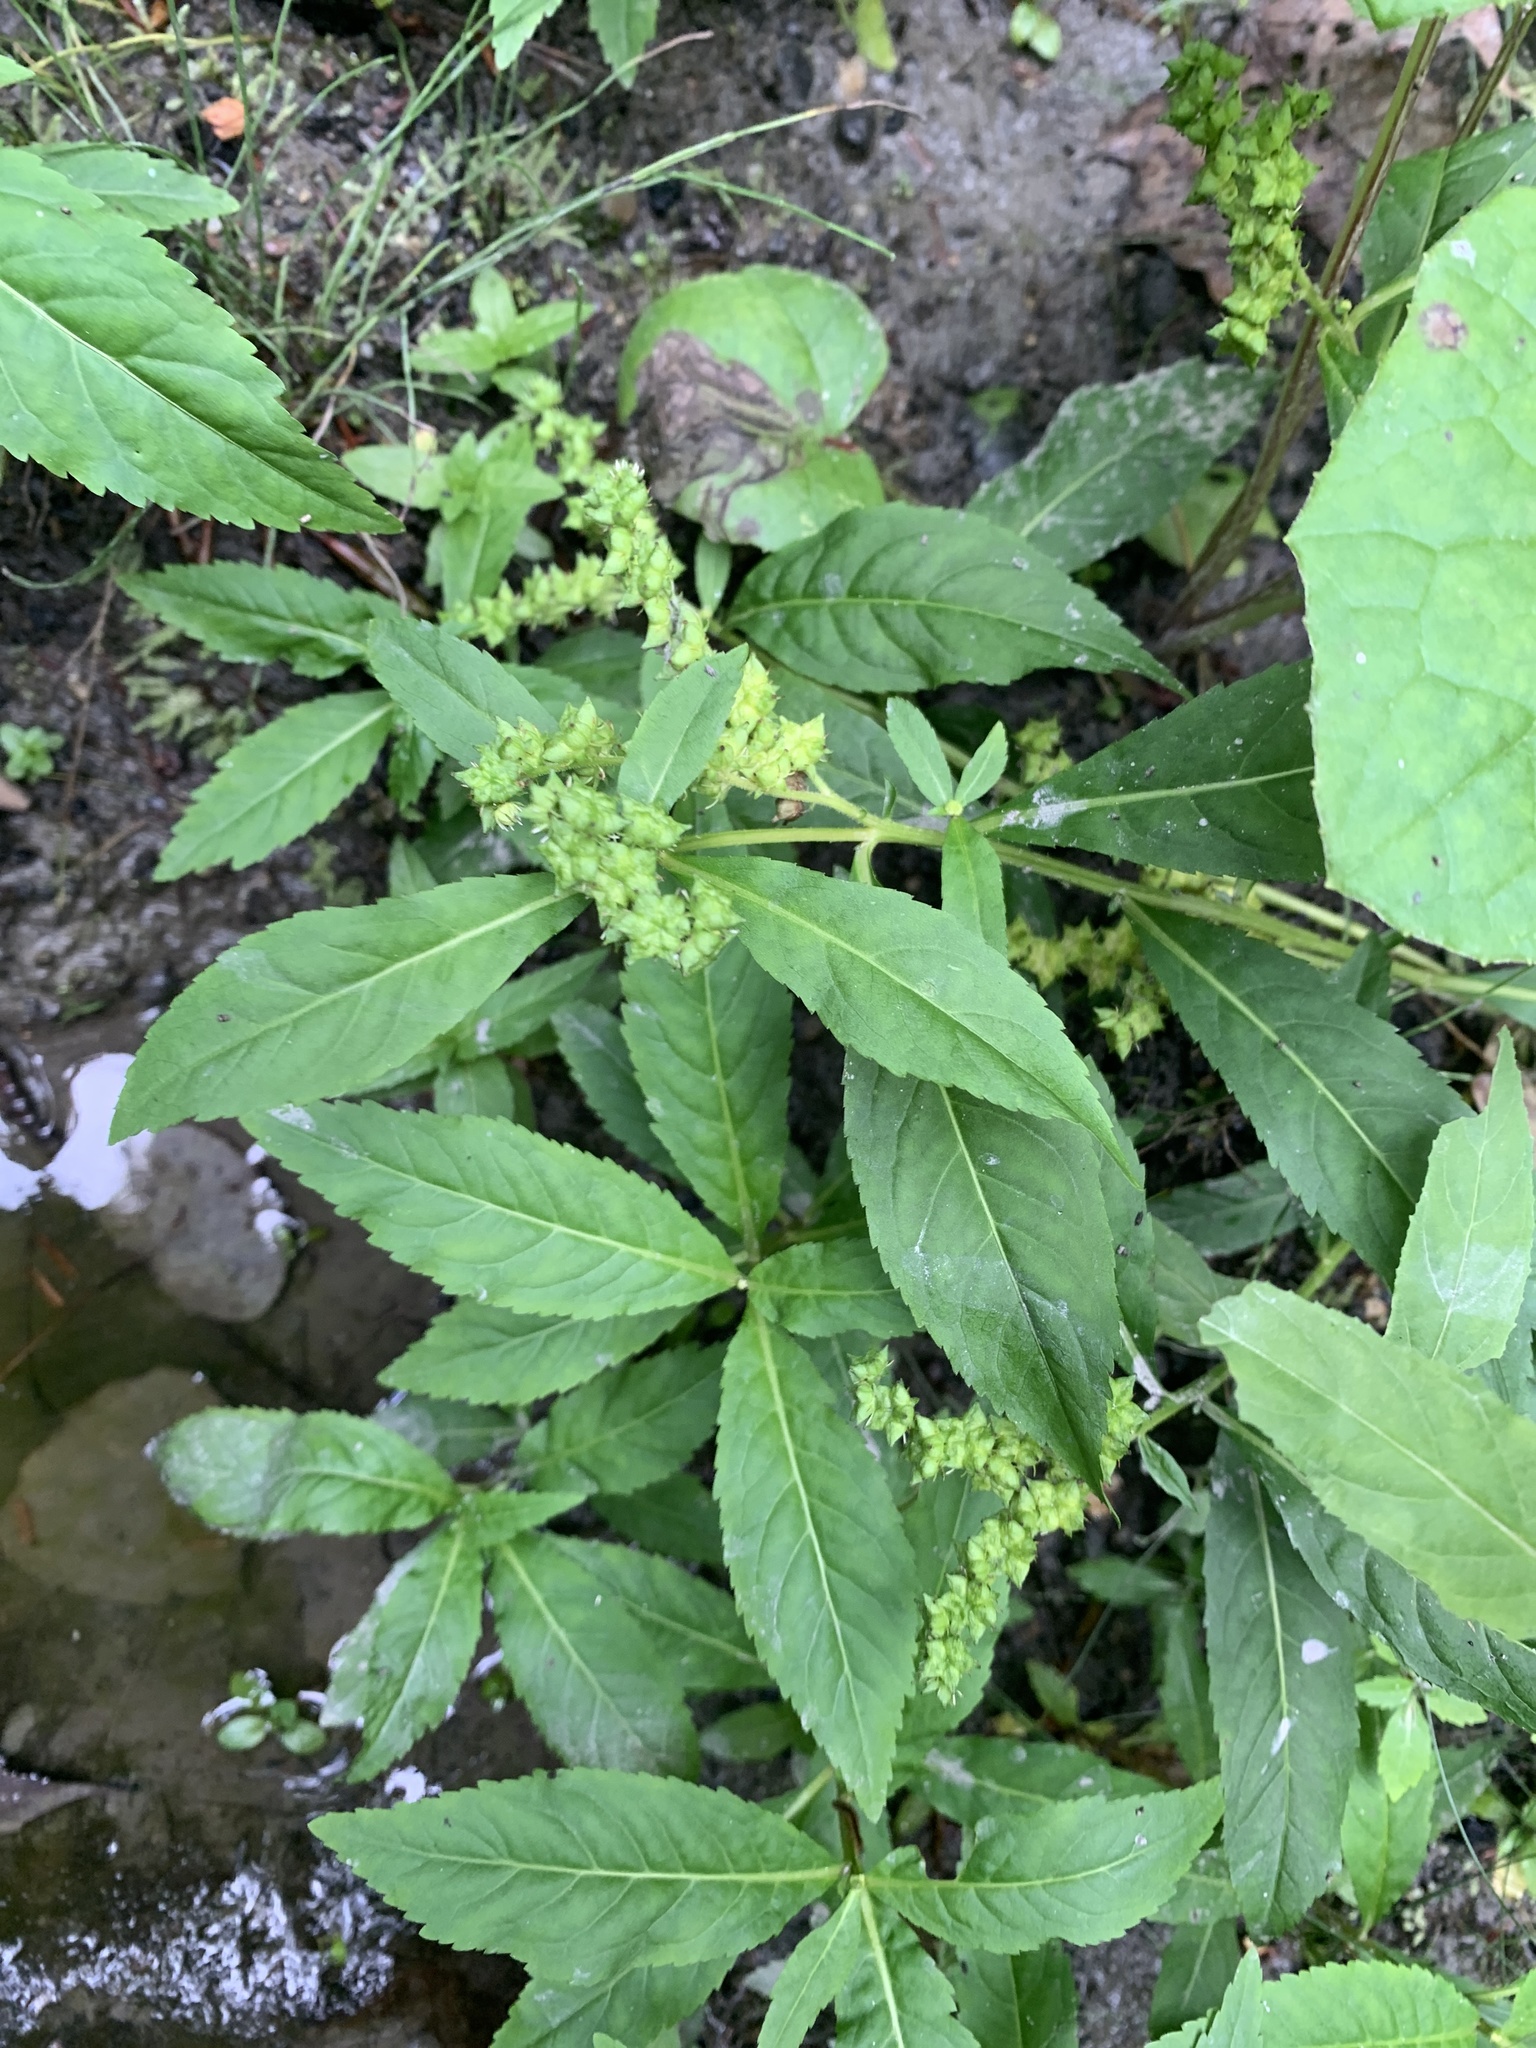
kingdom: Plantae
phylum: Tracheophyta
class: Magnoliopsida
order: Saxifragales
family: Penthoraceae
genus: Penthorum
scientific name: Penthorum sedoides
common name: Ditch stonecrop
